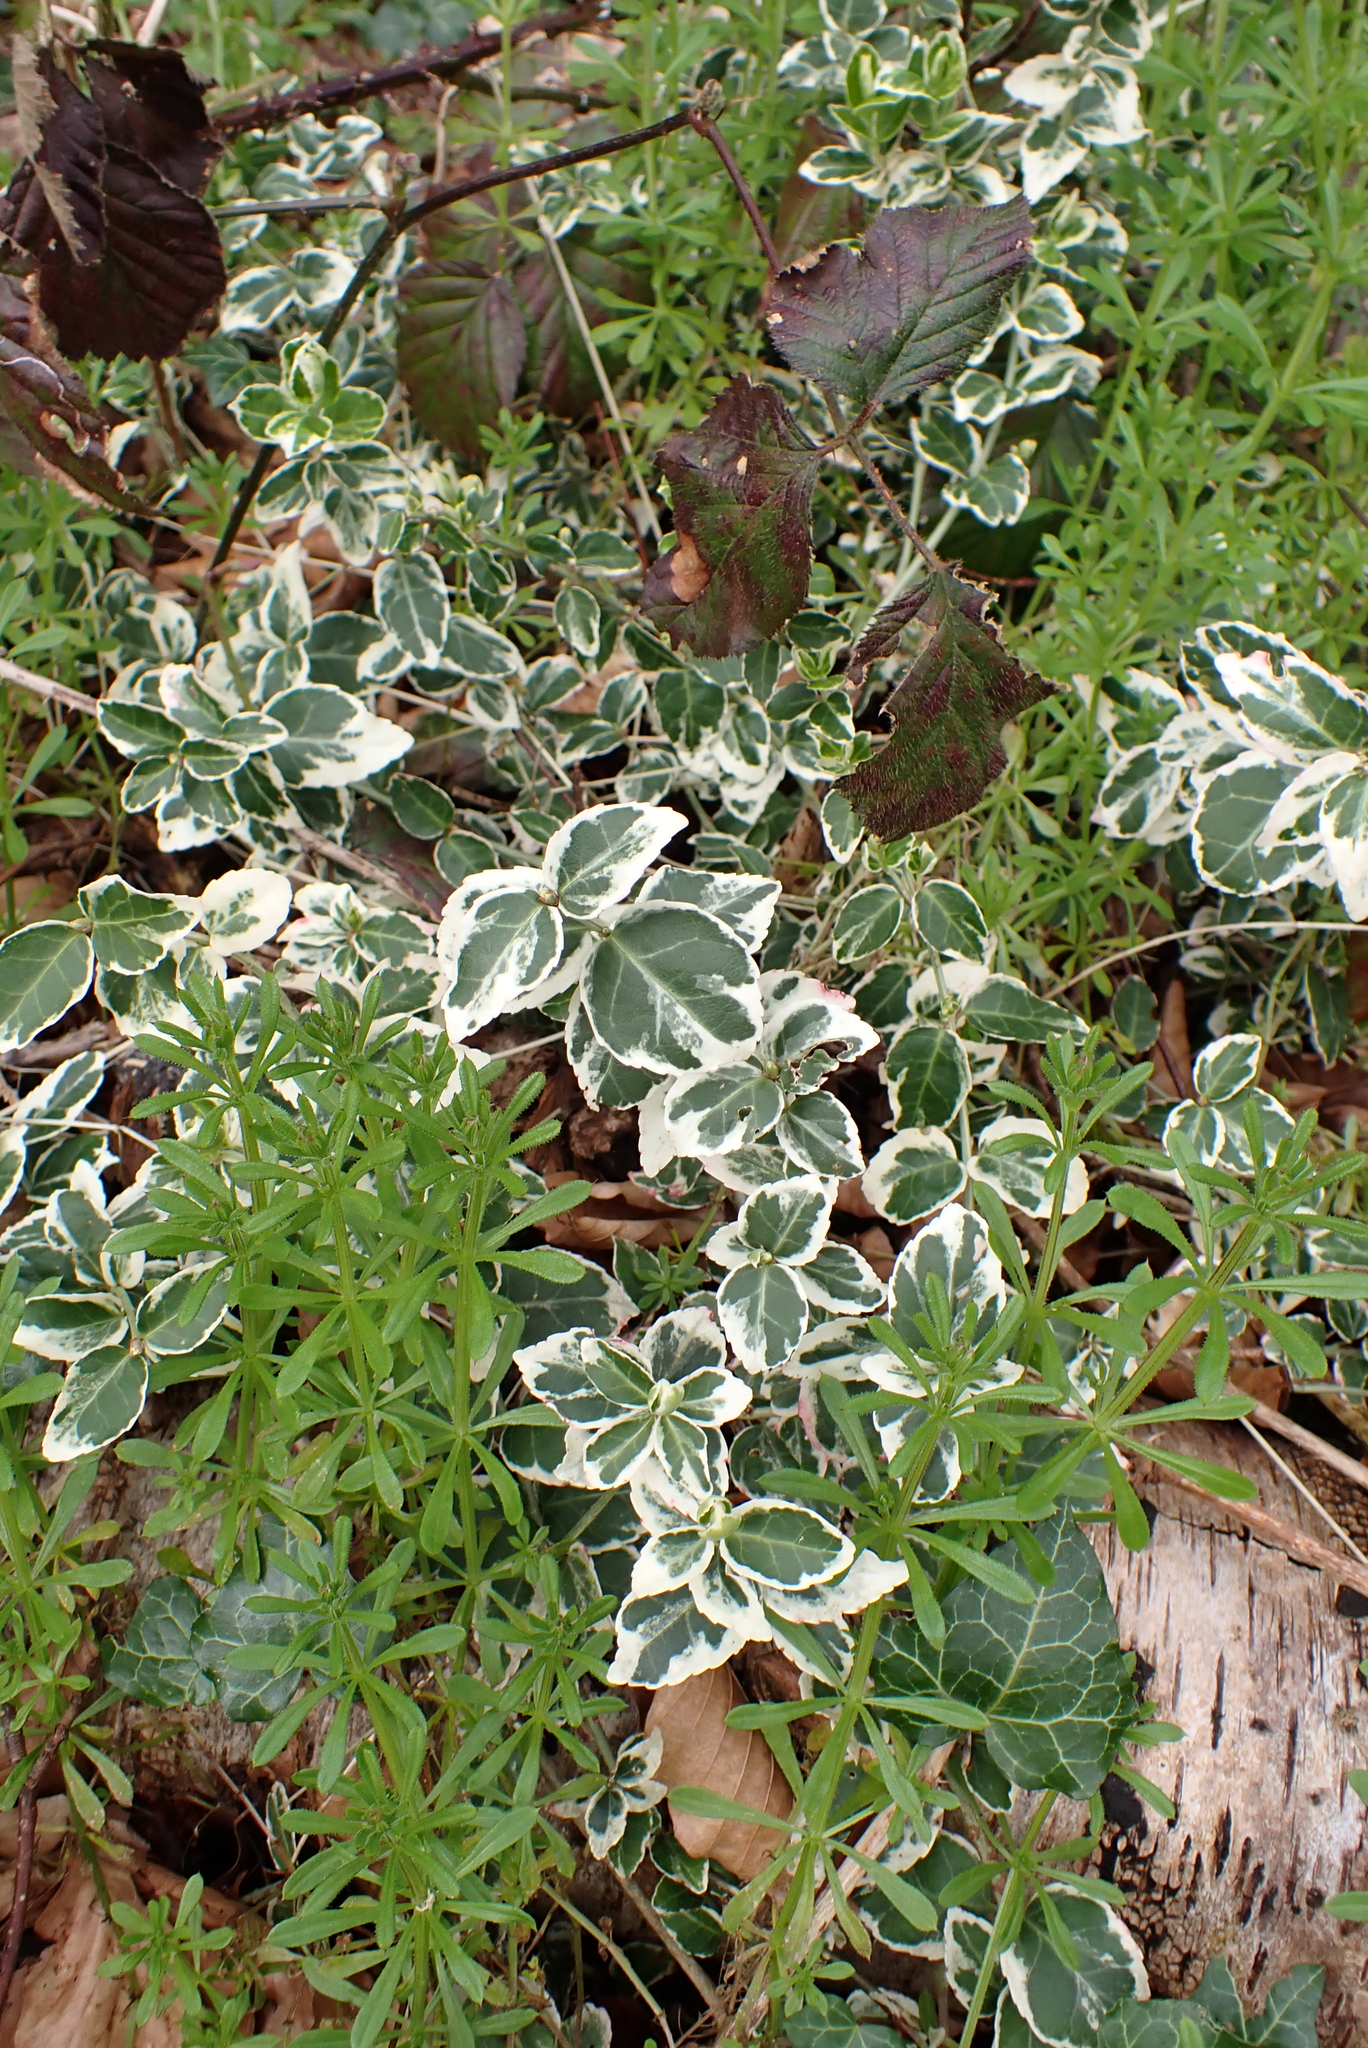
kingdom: Plantae
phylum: Tracheophyta
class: Magnoliopsida
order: Celastrales
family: Celastraceae
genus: Euonymus
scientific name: Euonymus fortunei
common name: Climbing euonymus
